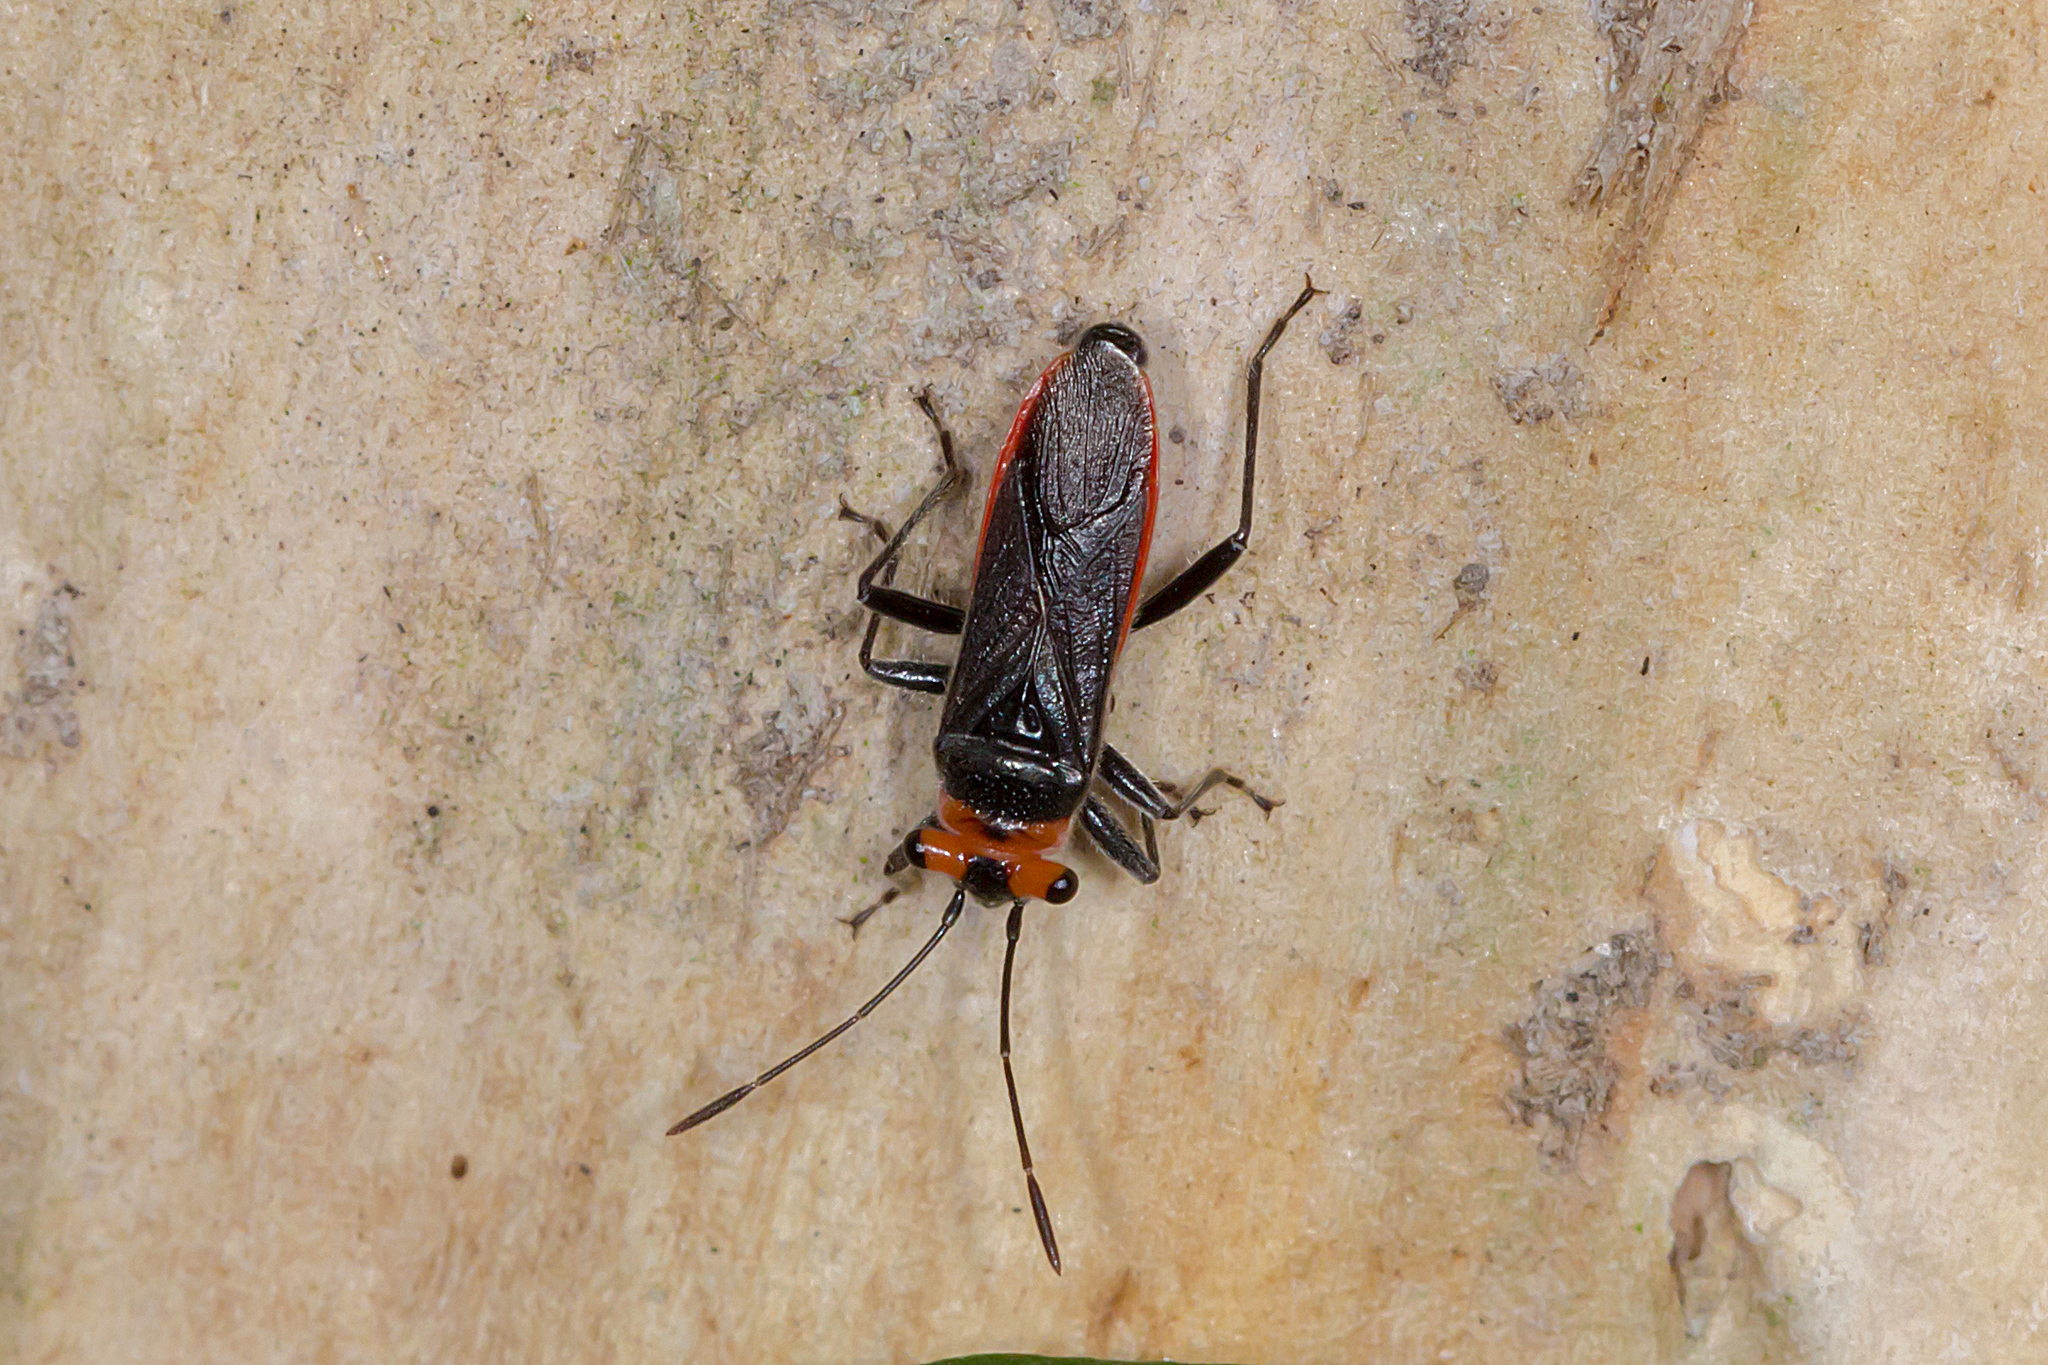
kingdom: Animalia
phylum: Arthropoda
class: Insecta
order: Hemiptera
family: Lygaeidae
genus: Scopiastes
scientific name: Scopiastes bicolor
